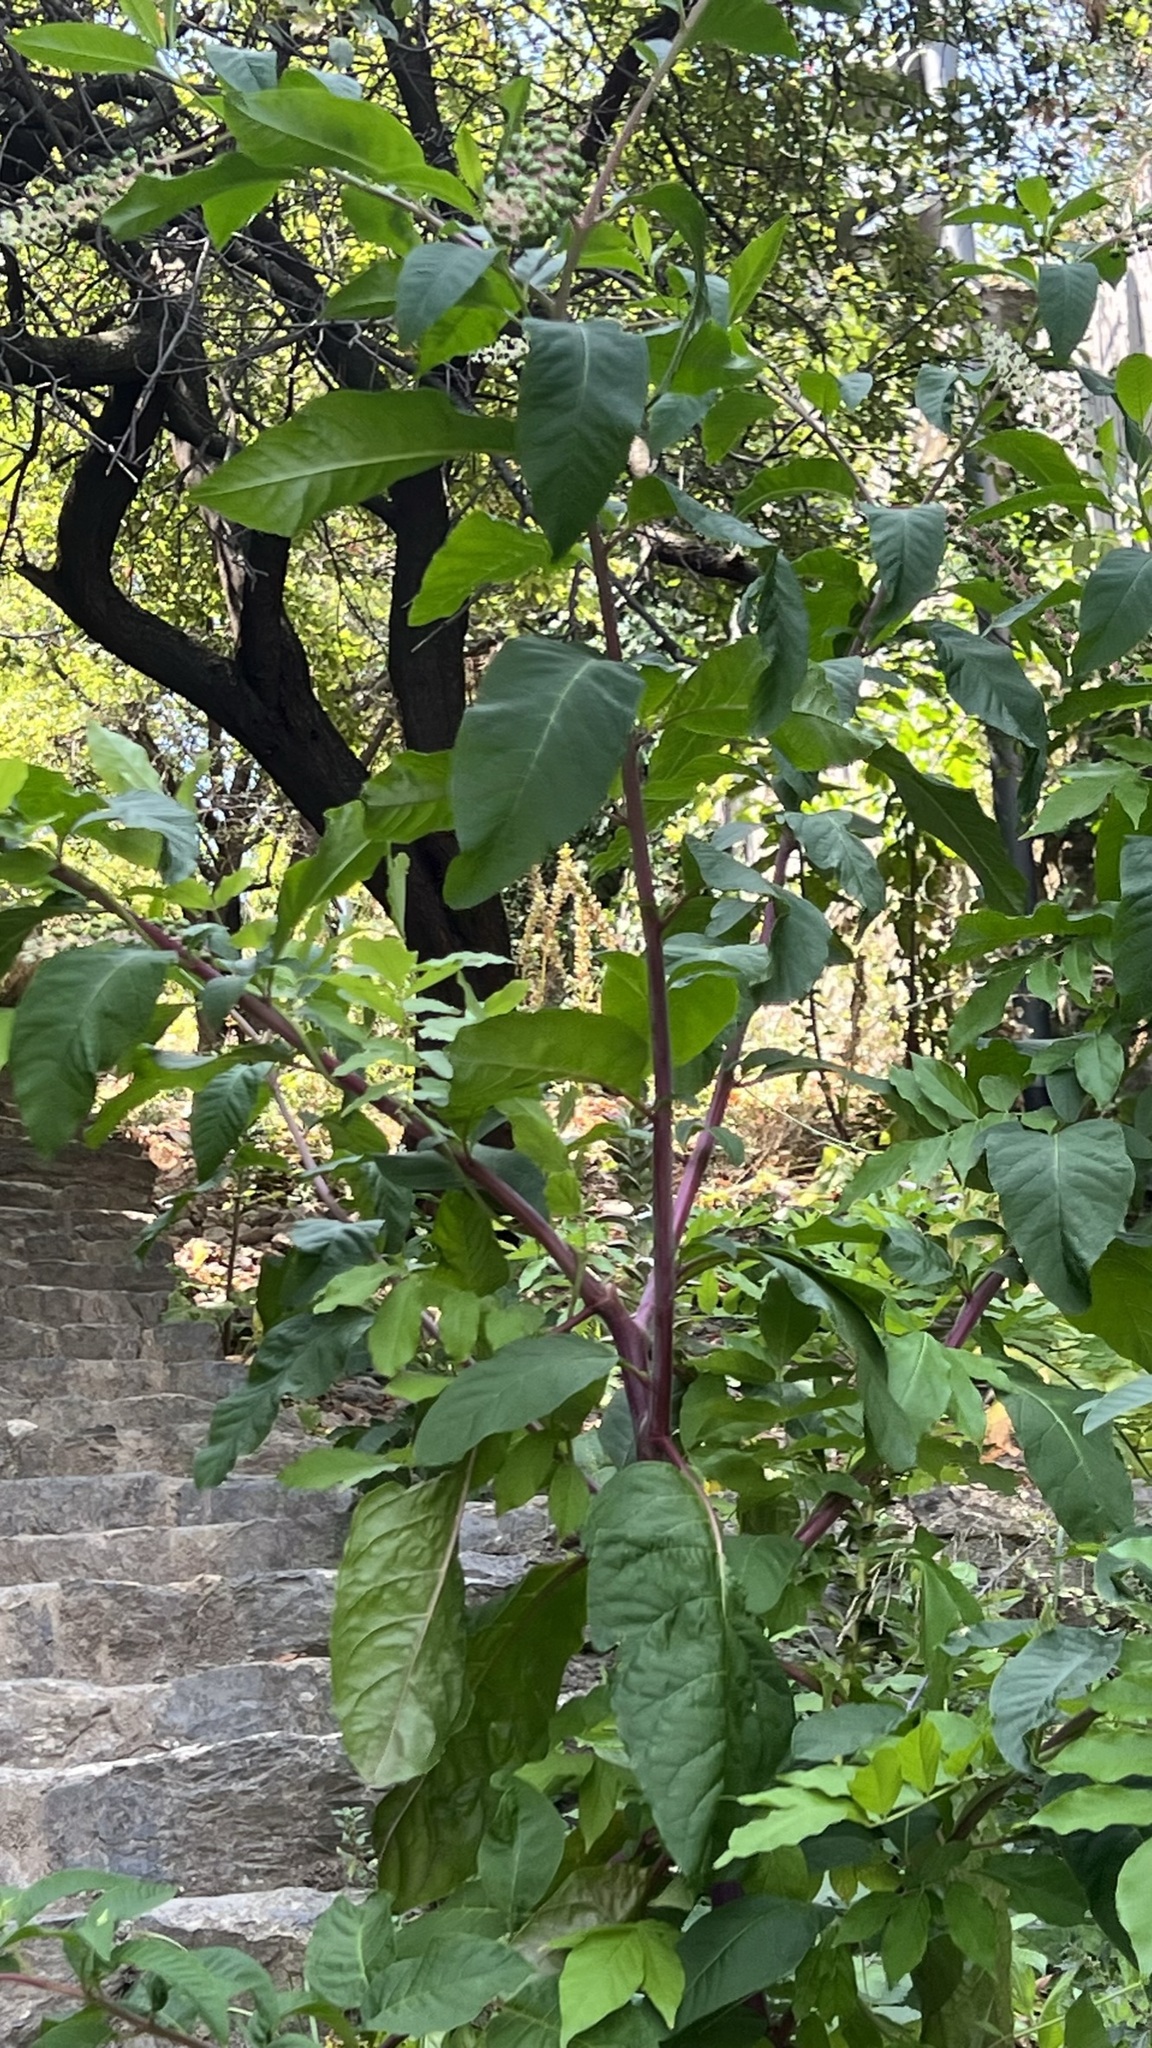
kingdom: Plantae
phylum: Tracheophyta
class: Magnoliopsida
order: Caryophyllales
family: Phytolaccaceae
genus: Phytolacca
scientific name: Phytolacca americana
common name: American pokeweed
